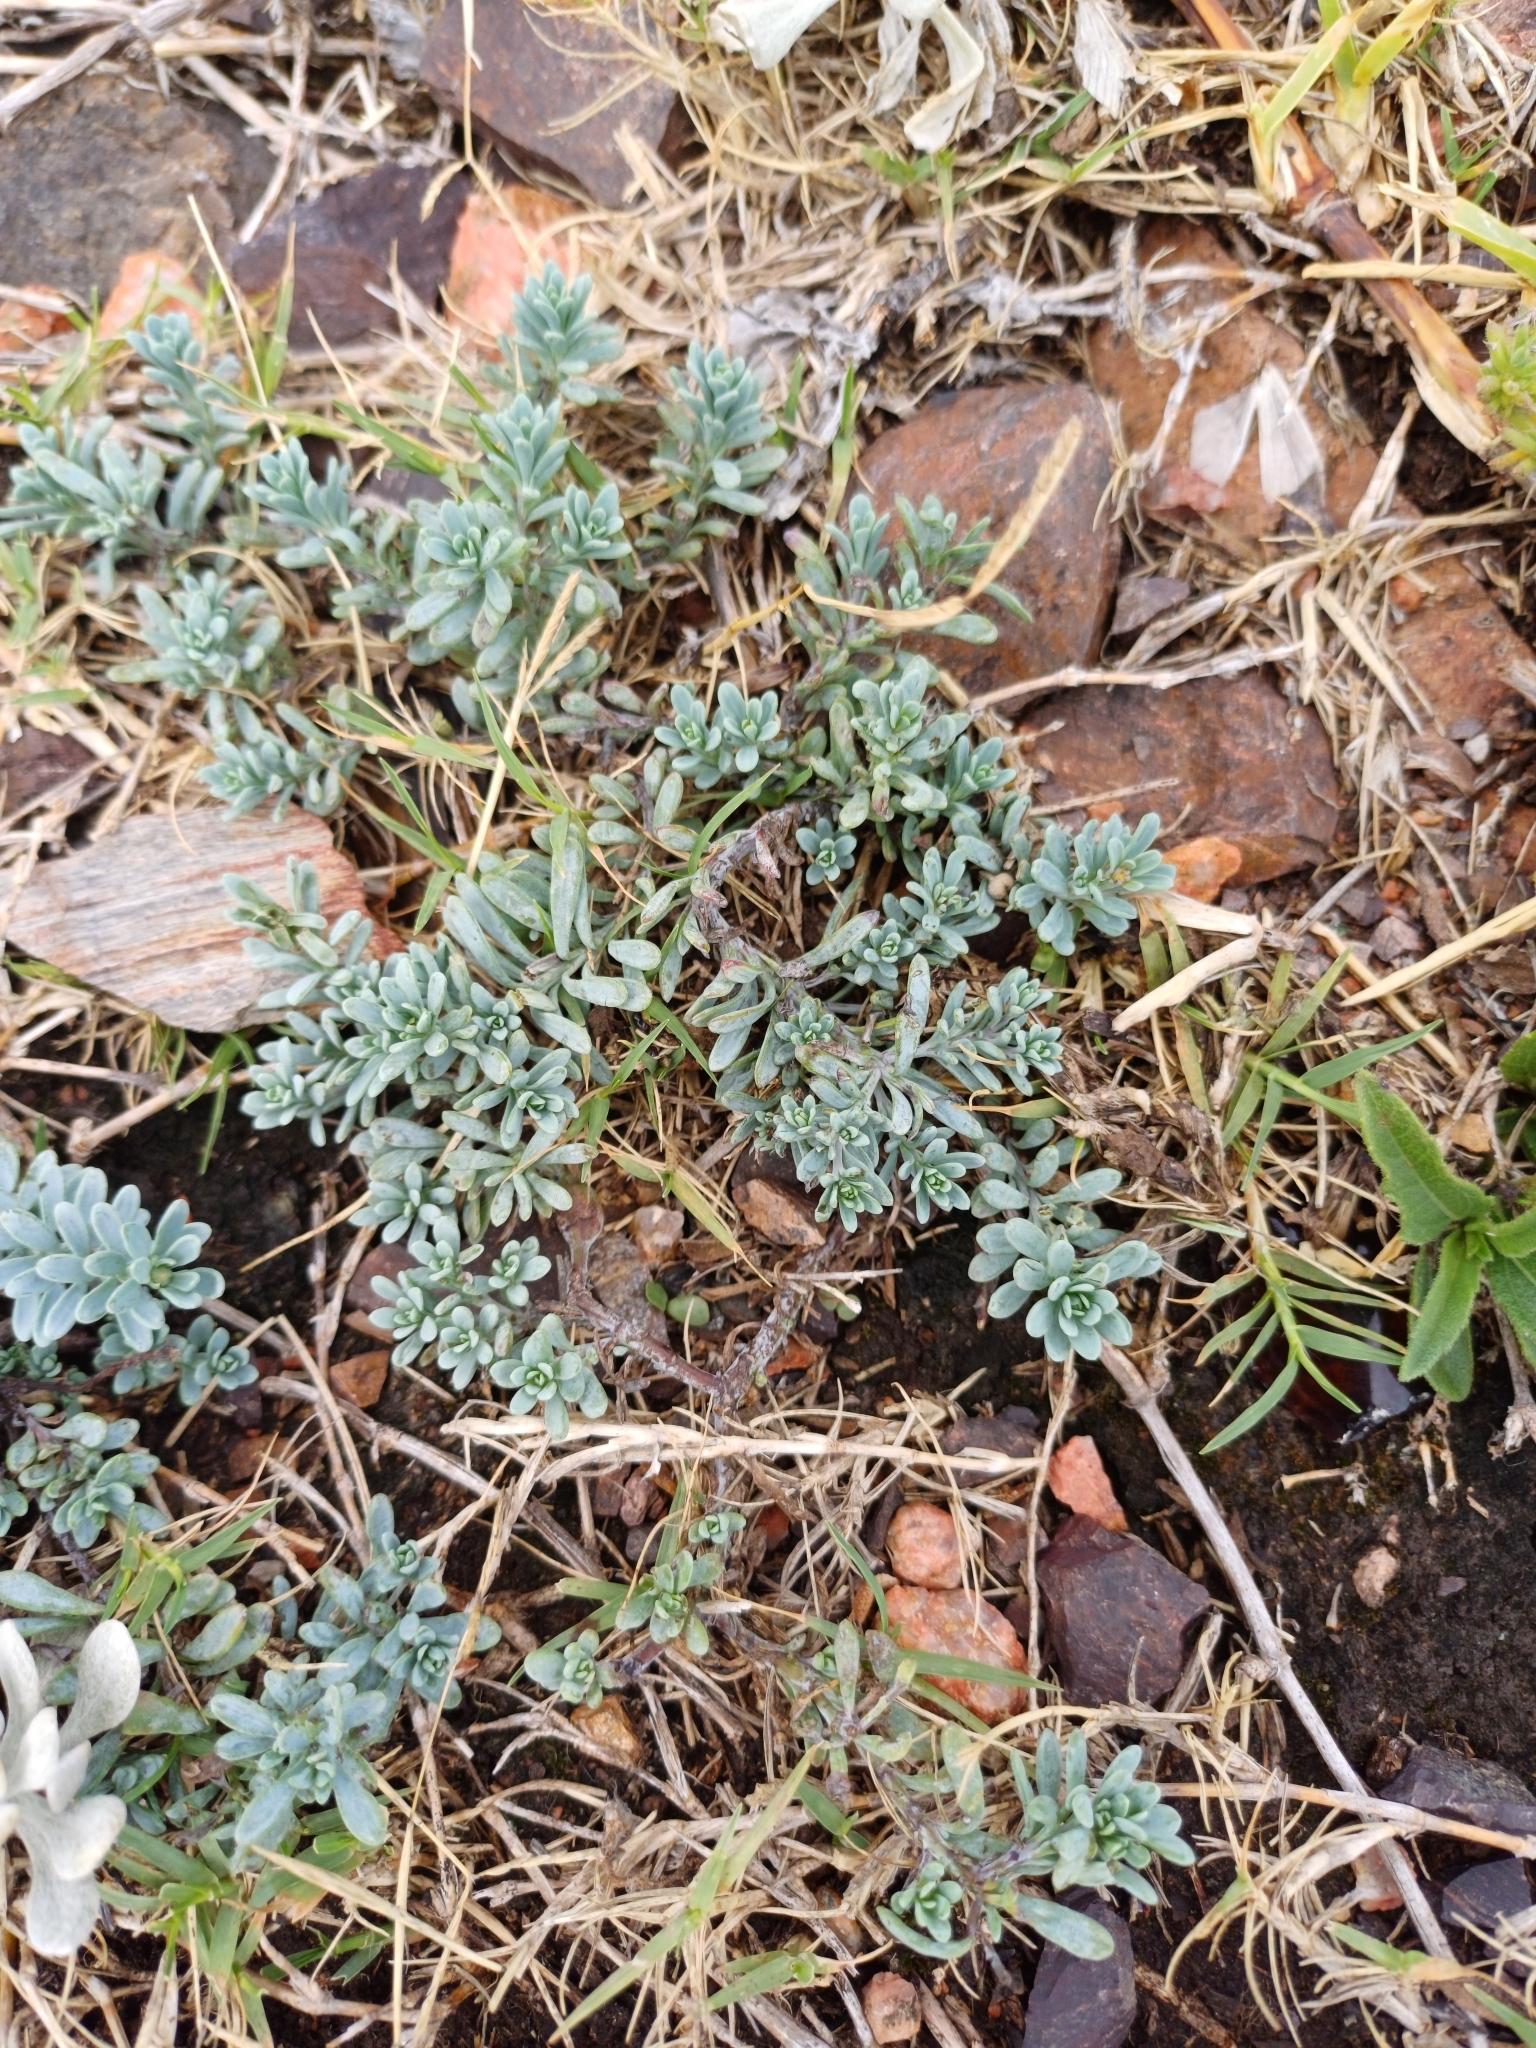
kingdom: Plantae
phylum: Tracheophyta
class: Magnoliopsida
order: Asterales
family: Asteraceae
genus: Porophyllum
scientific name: Porophyllum linifolium
